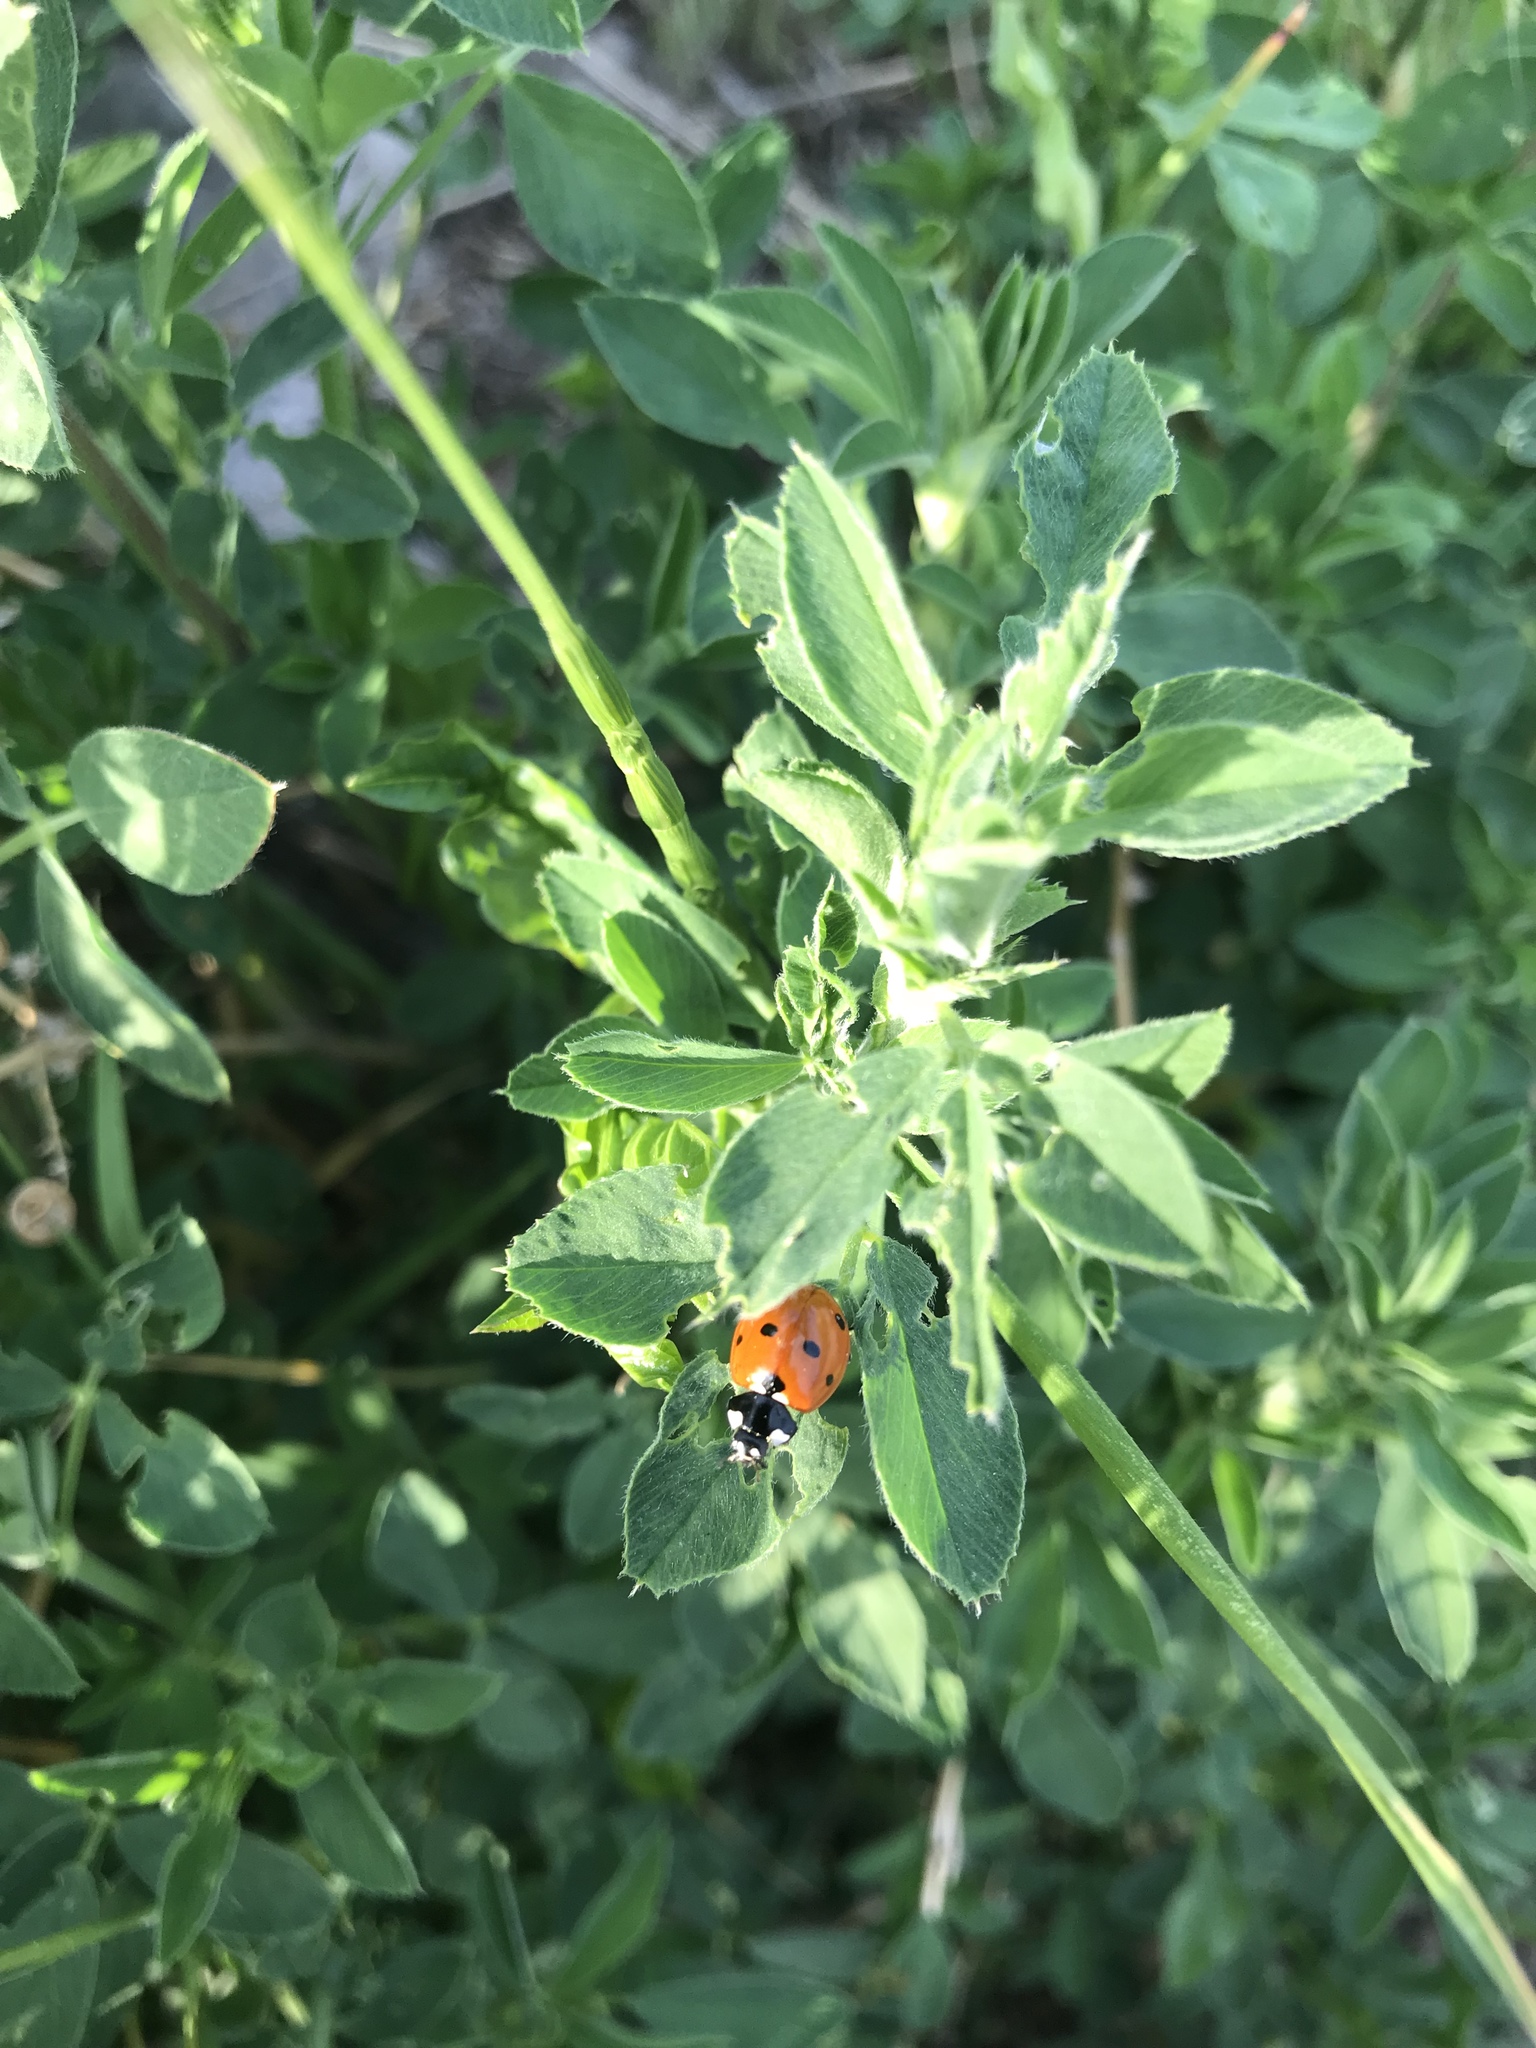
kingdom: Animalia
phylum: Arthropoda
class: Insecta
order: Coleoptera
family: Coccinellidae
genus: Coccinella
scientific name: Coccinella septempunctata
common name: Sevenspotted lady beetle
